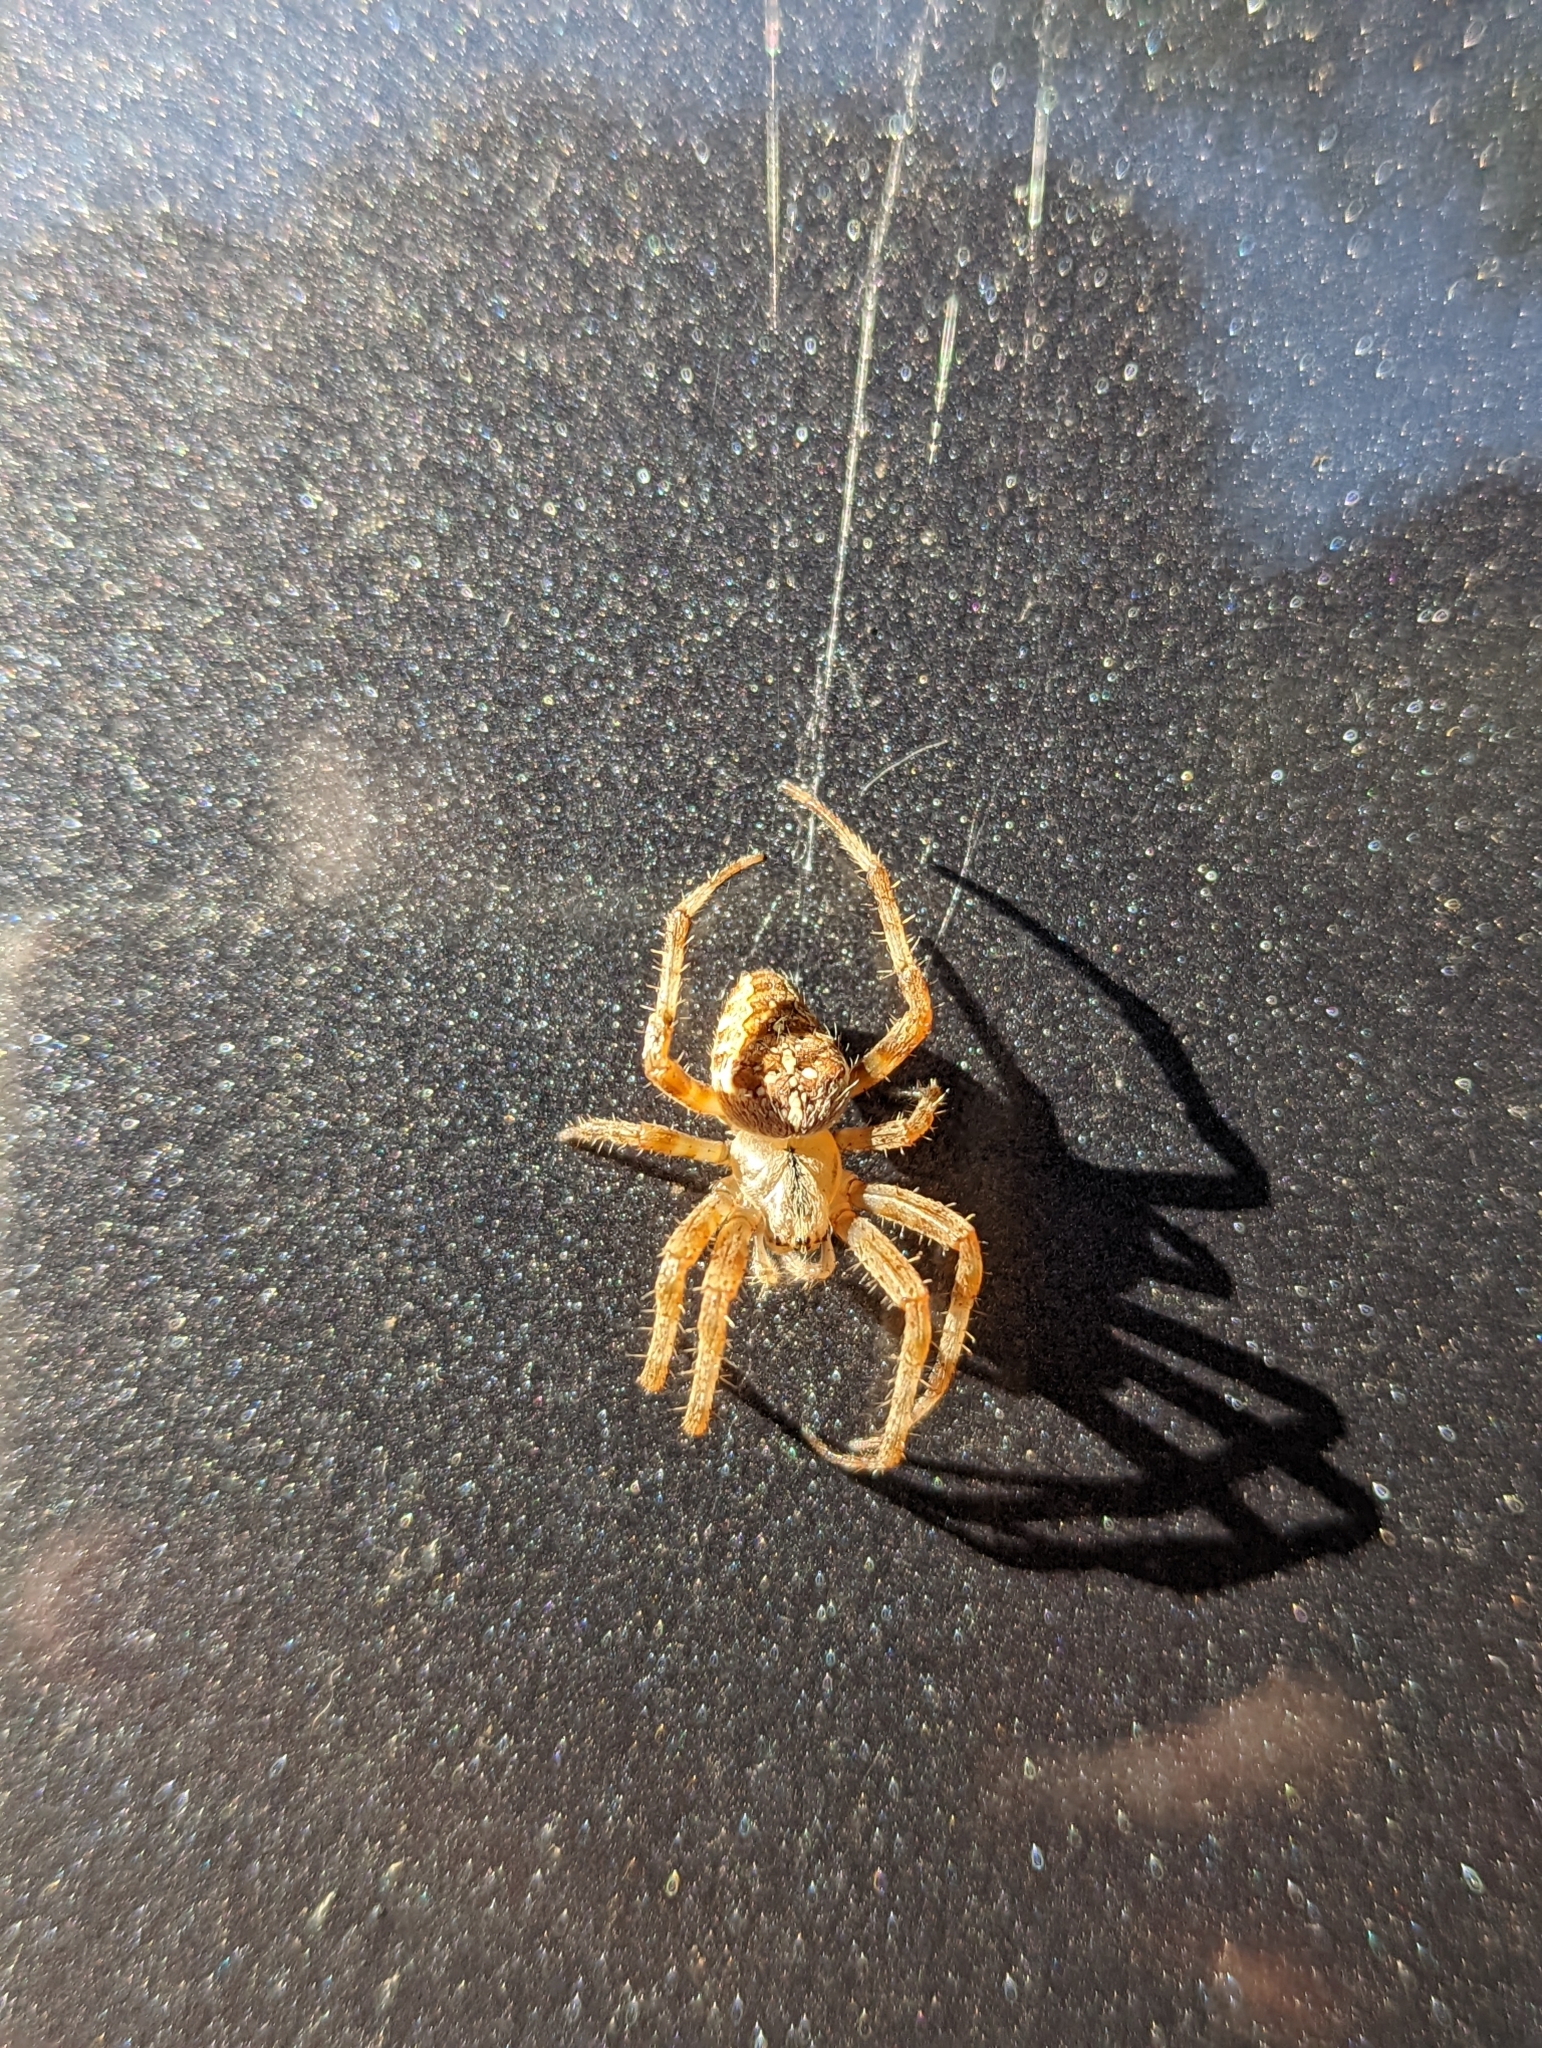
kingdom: Animalia
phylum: Arthropoda
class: Arachnida
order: Araneae
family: Araneidae
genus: Araneus
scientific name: Araneus diadematus
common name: Cross orbweaver
